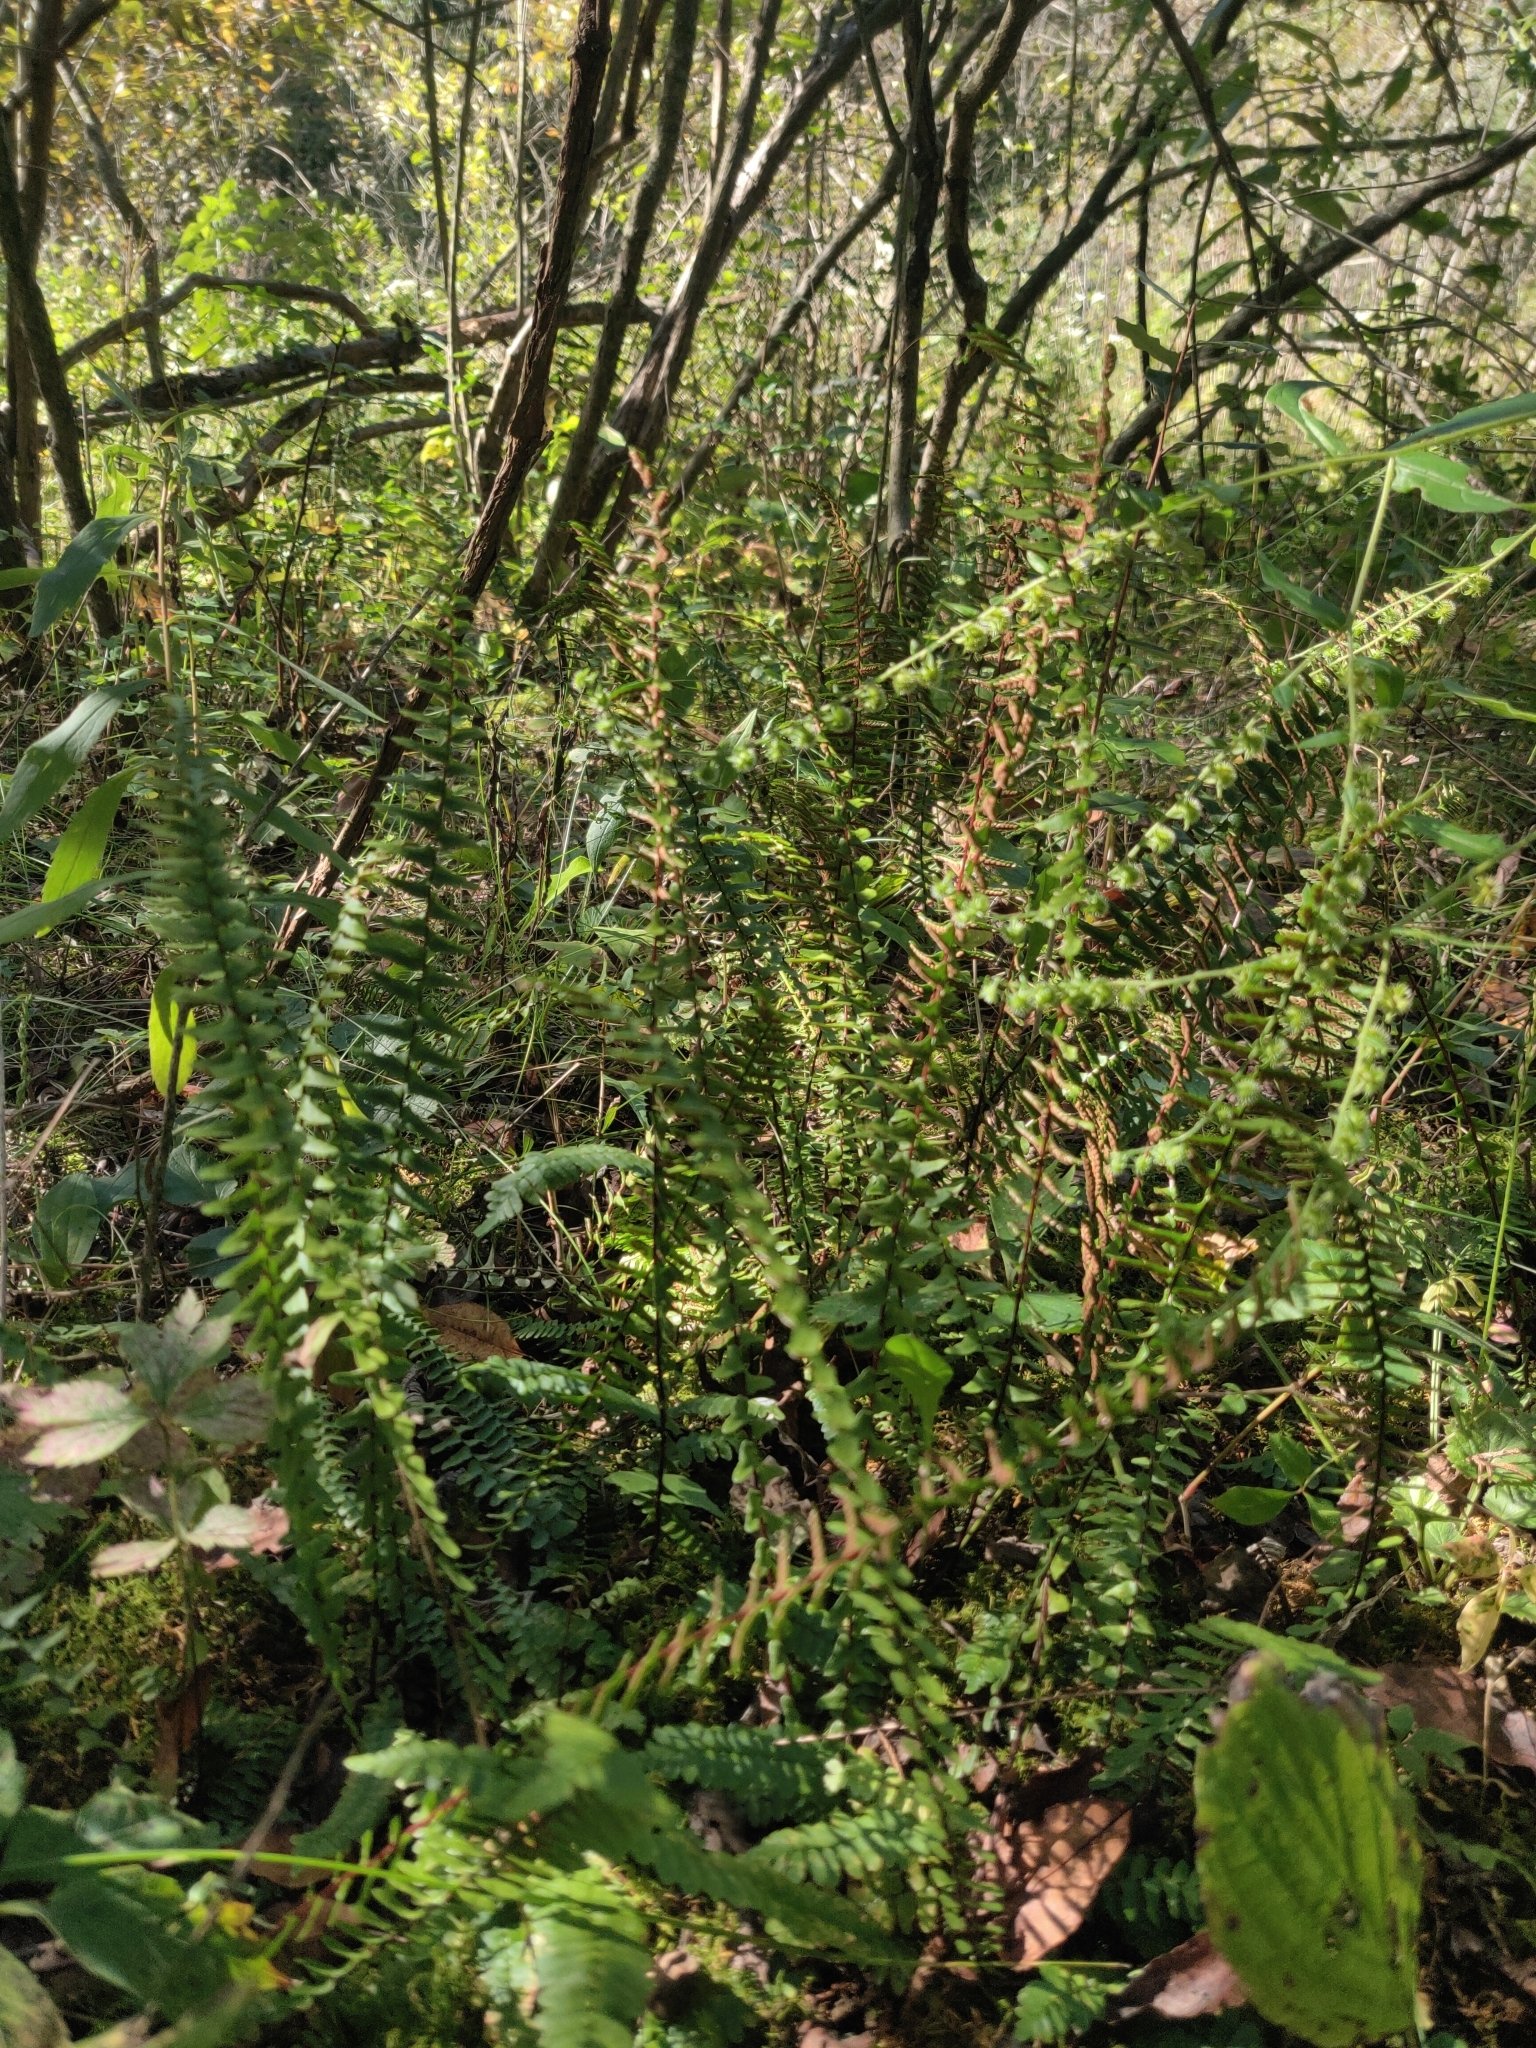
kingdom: Plantae
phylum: Tracheophyta
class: Polypodiopsida
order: Polypodiales
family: Aspleniaceae
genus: Asplenium
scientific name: Asplenium platyneuron
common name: Ebony spleenwort
